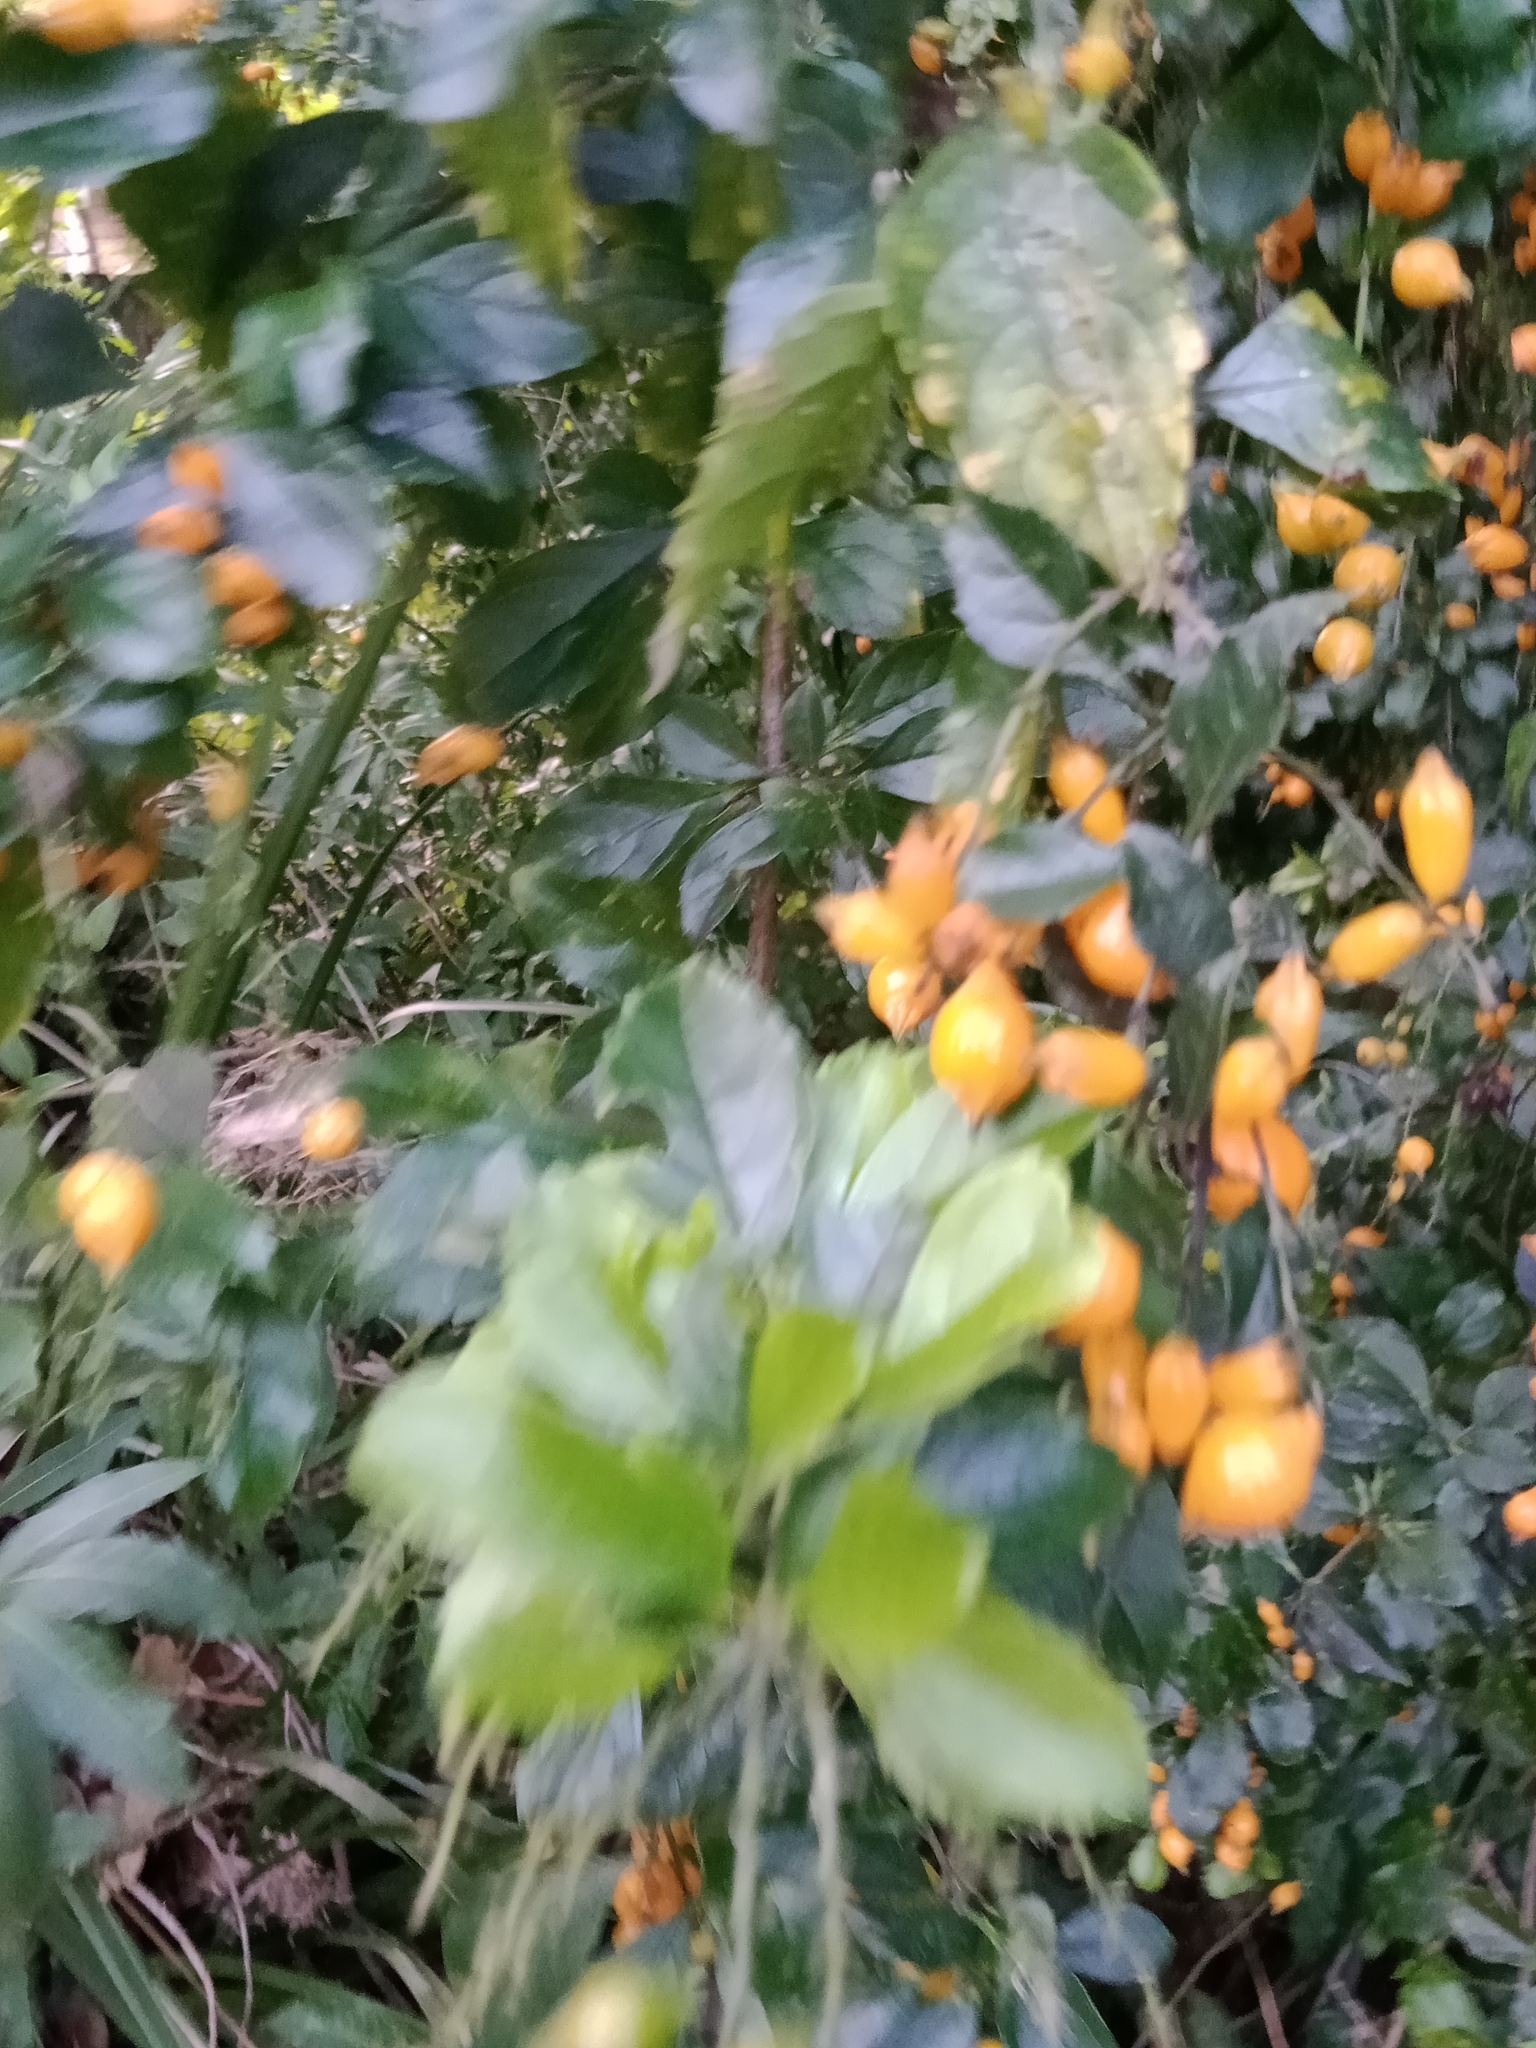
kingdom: Plantae
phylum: Tracheophyta
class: Magnoliopsida
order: Lamiales
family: Verbenaceae
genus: Duranta
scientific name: Duranta erecta
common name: Golden dewdrops
